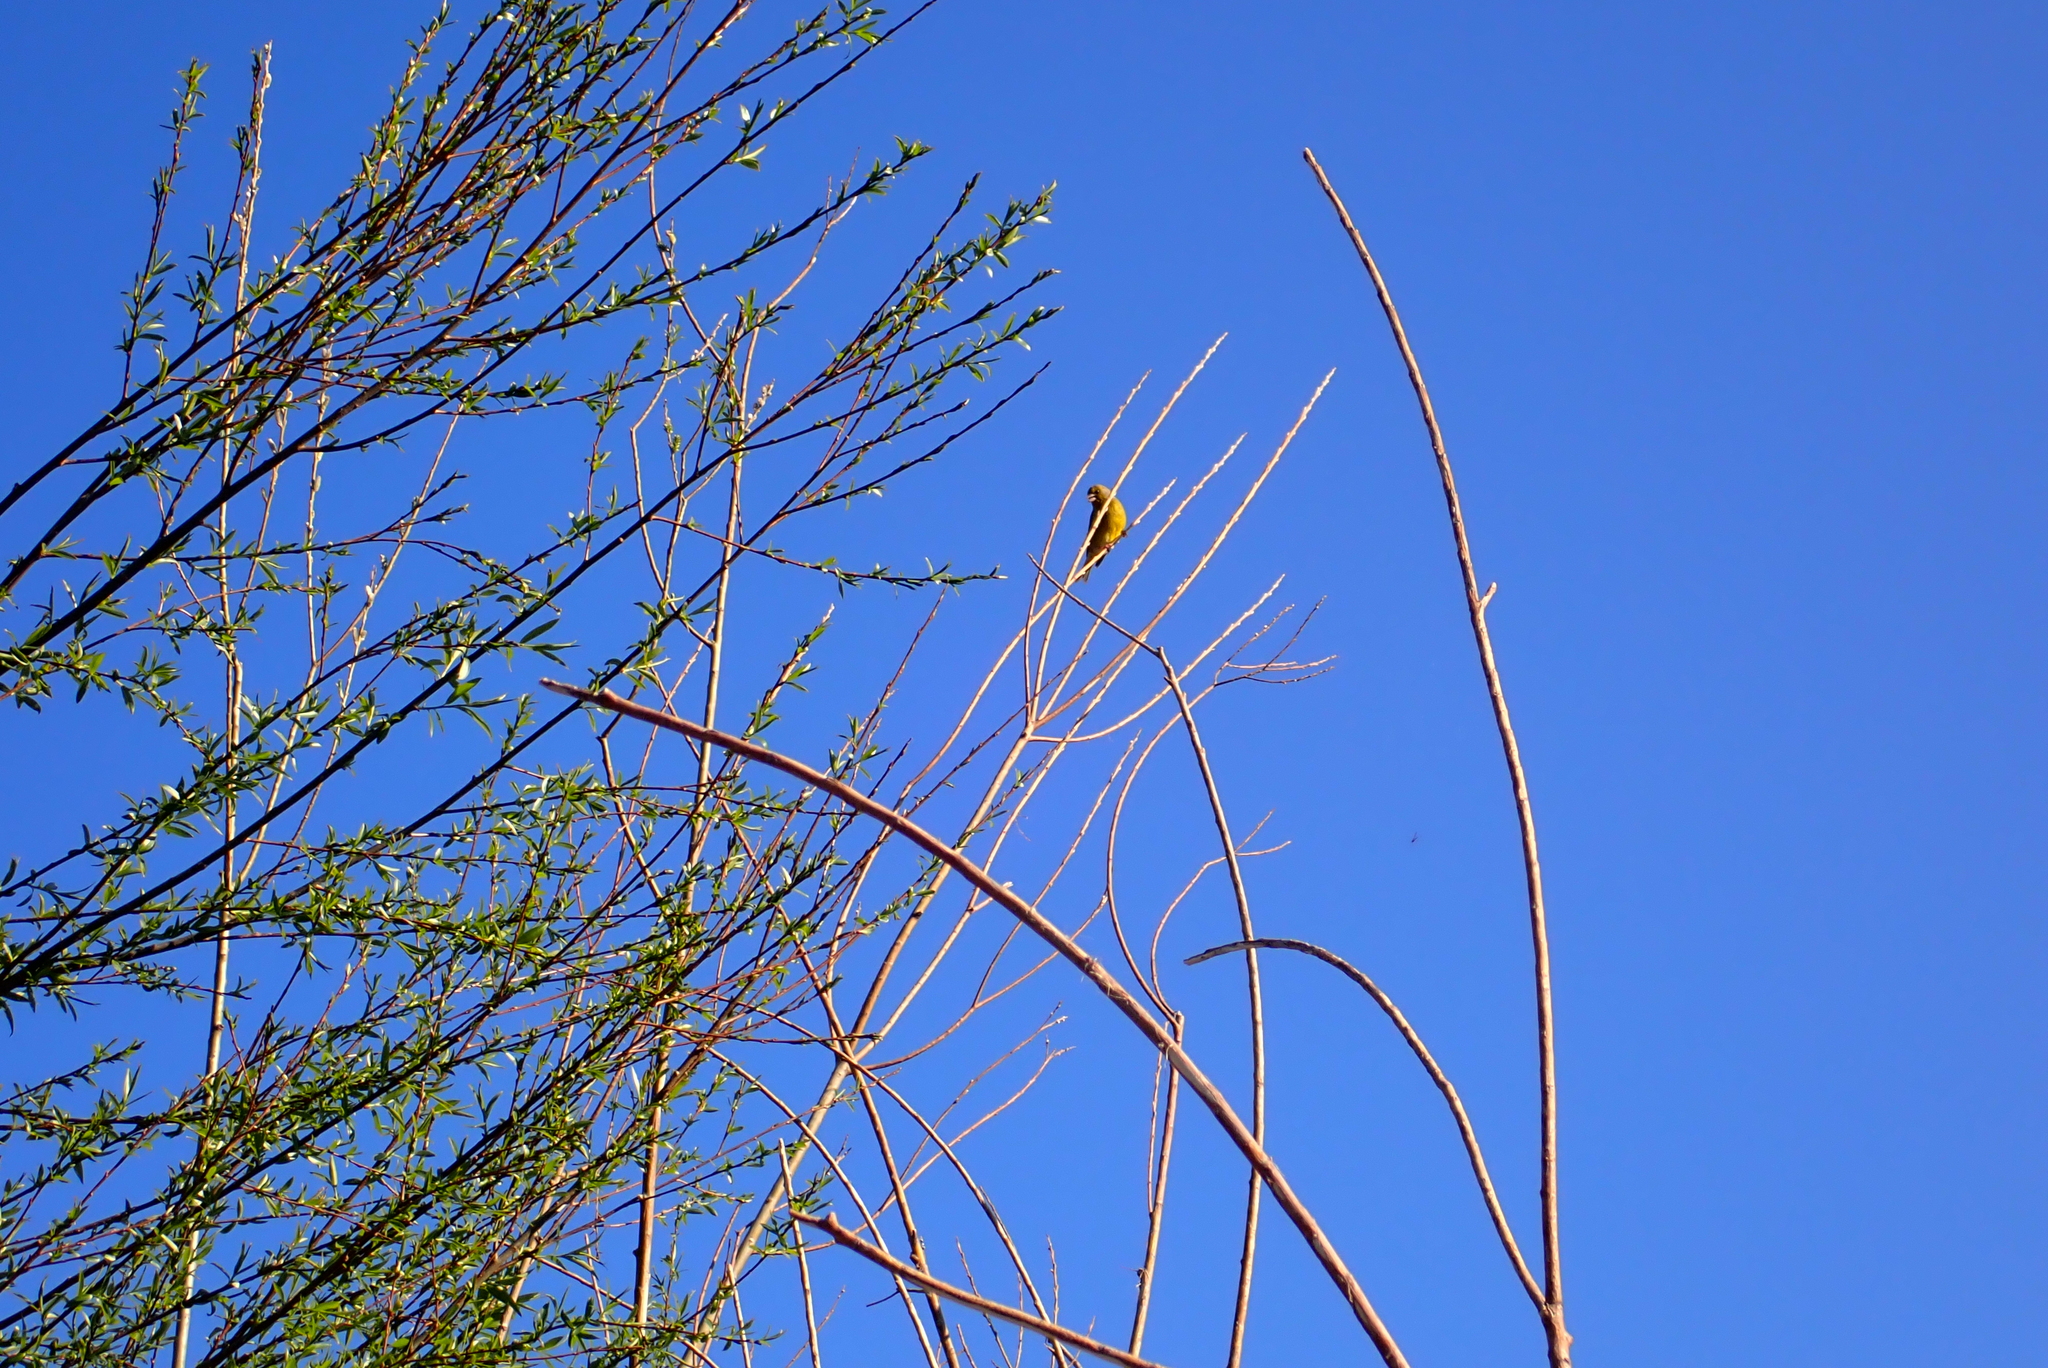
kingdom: Plantae
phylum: Tracheophyta
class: Liliopsida
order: Poales
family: Poaceae
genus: Chloris
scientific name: Chloris chloris
